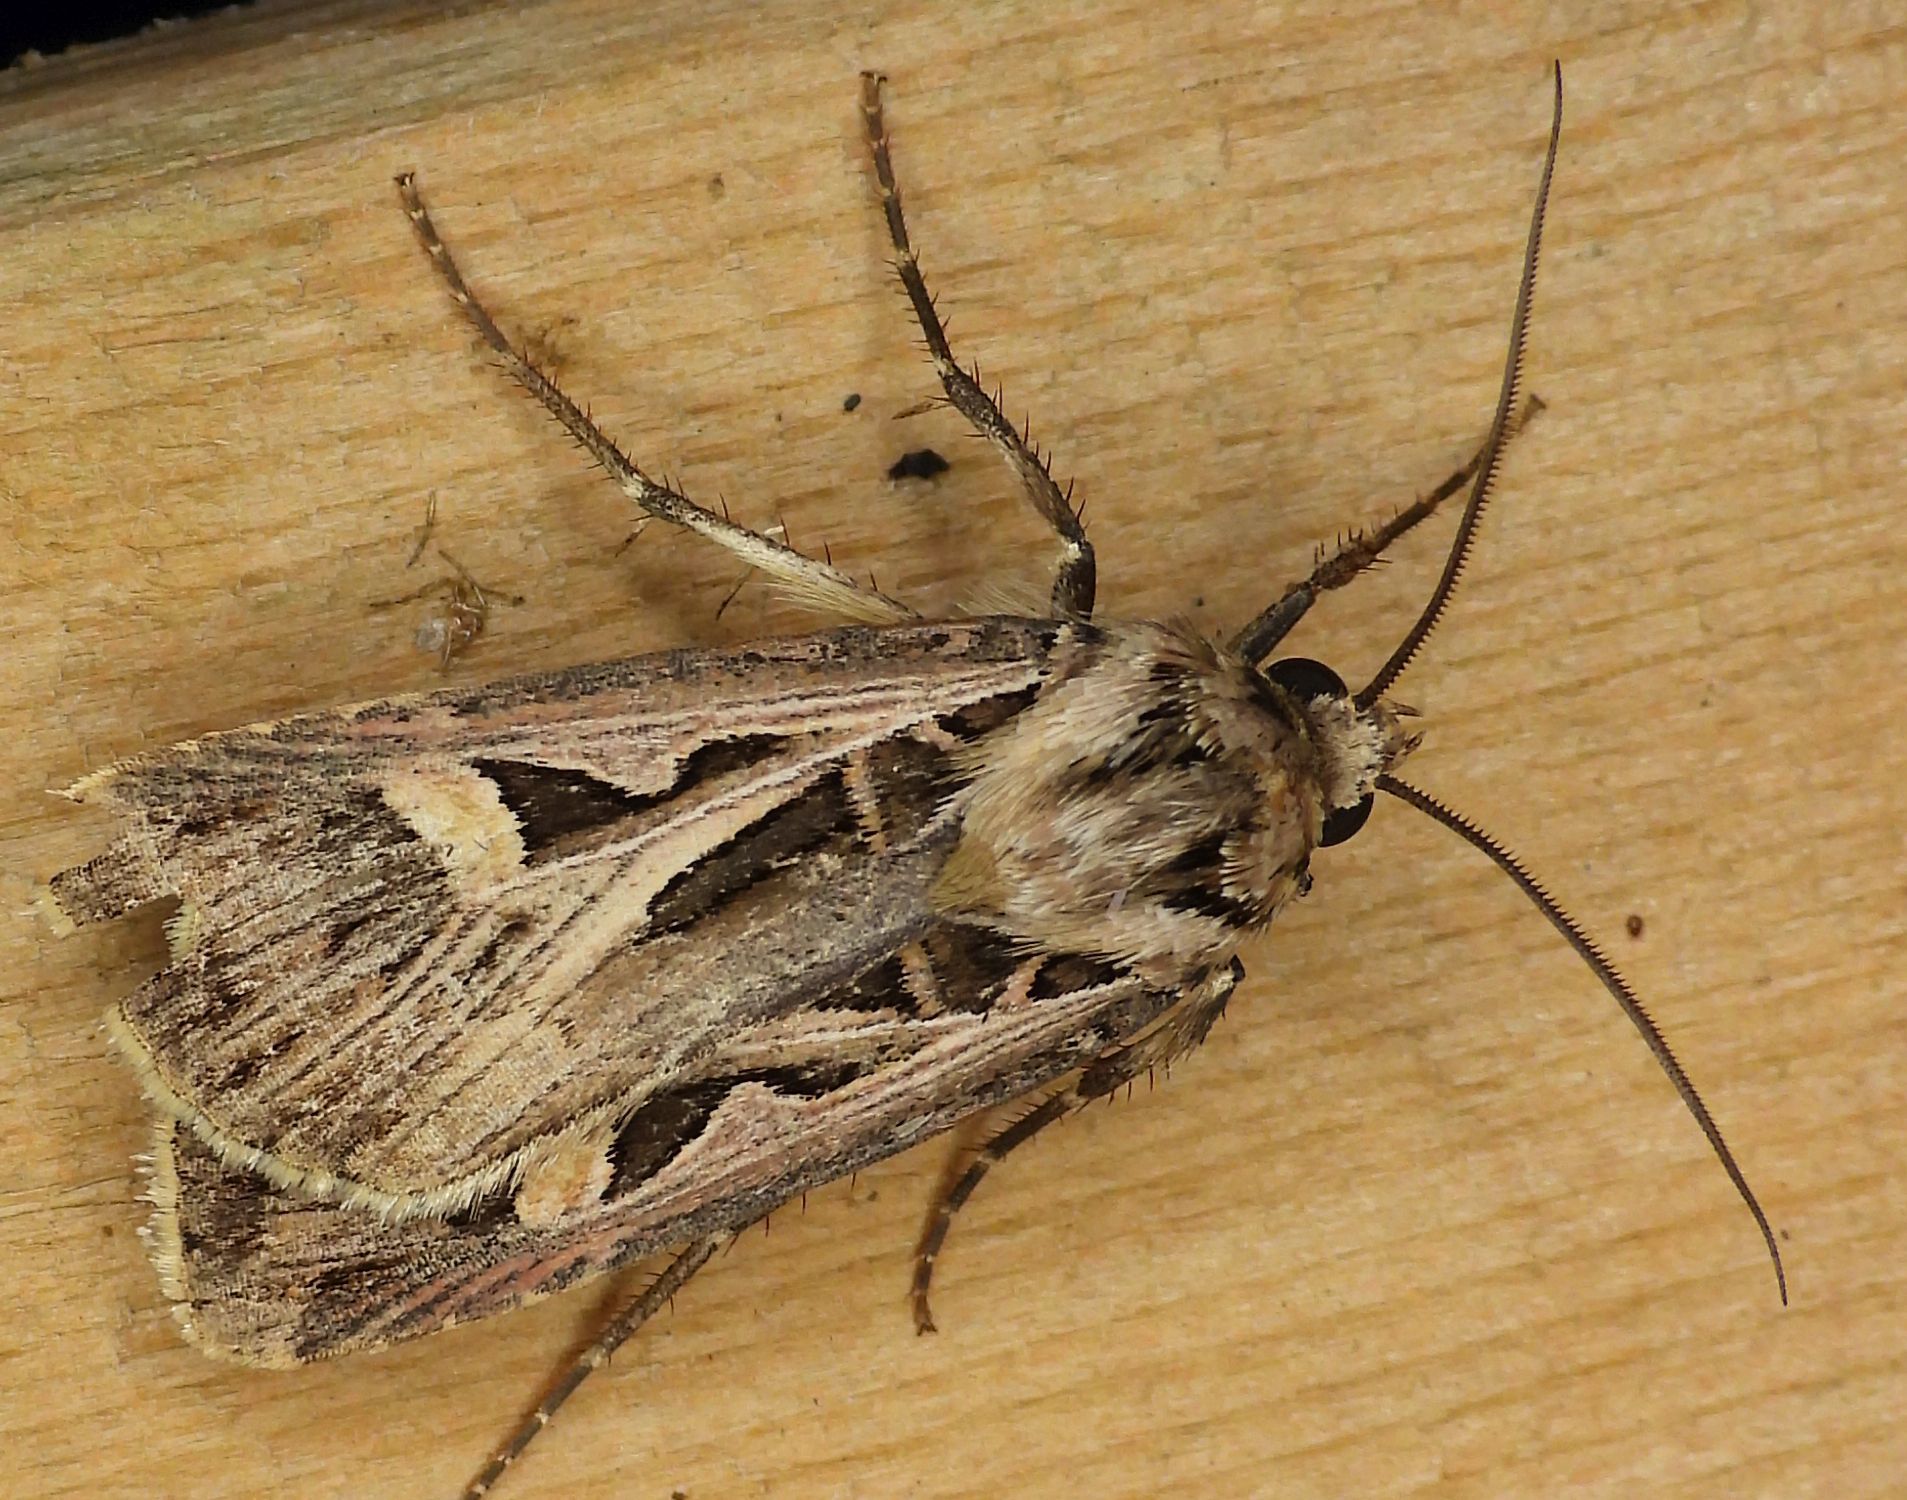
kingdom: Animalia
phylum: Arthropoda
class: Insecta
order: Lepidoptera
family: Noctuidae
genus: Feltia
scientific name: Feltia jaculifera
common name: Dingy cutworm moth
